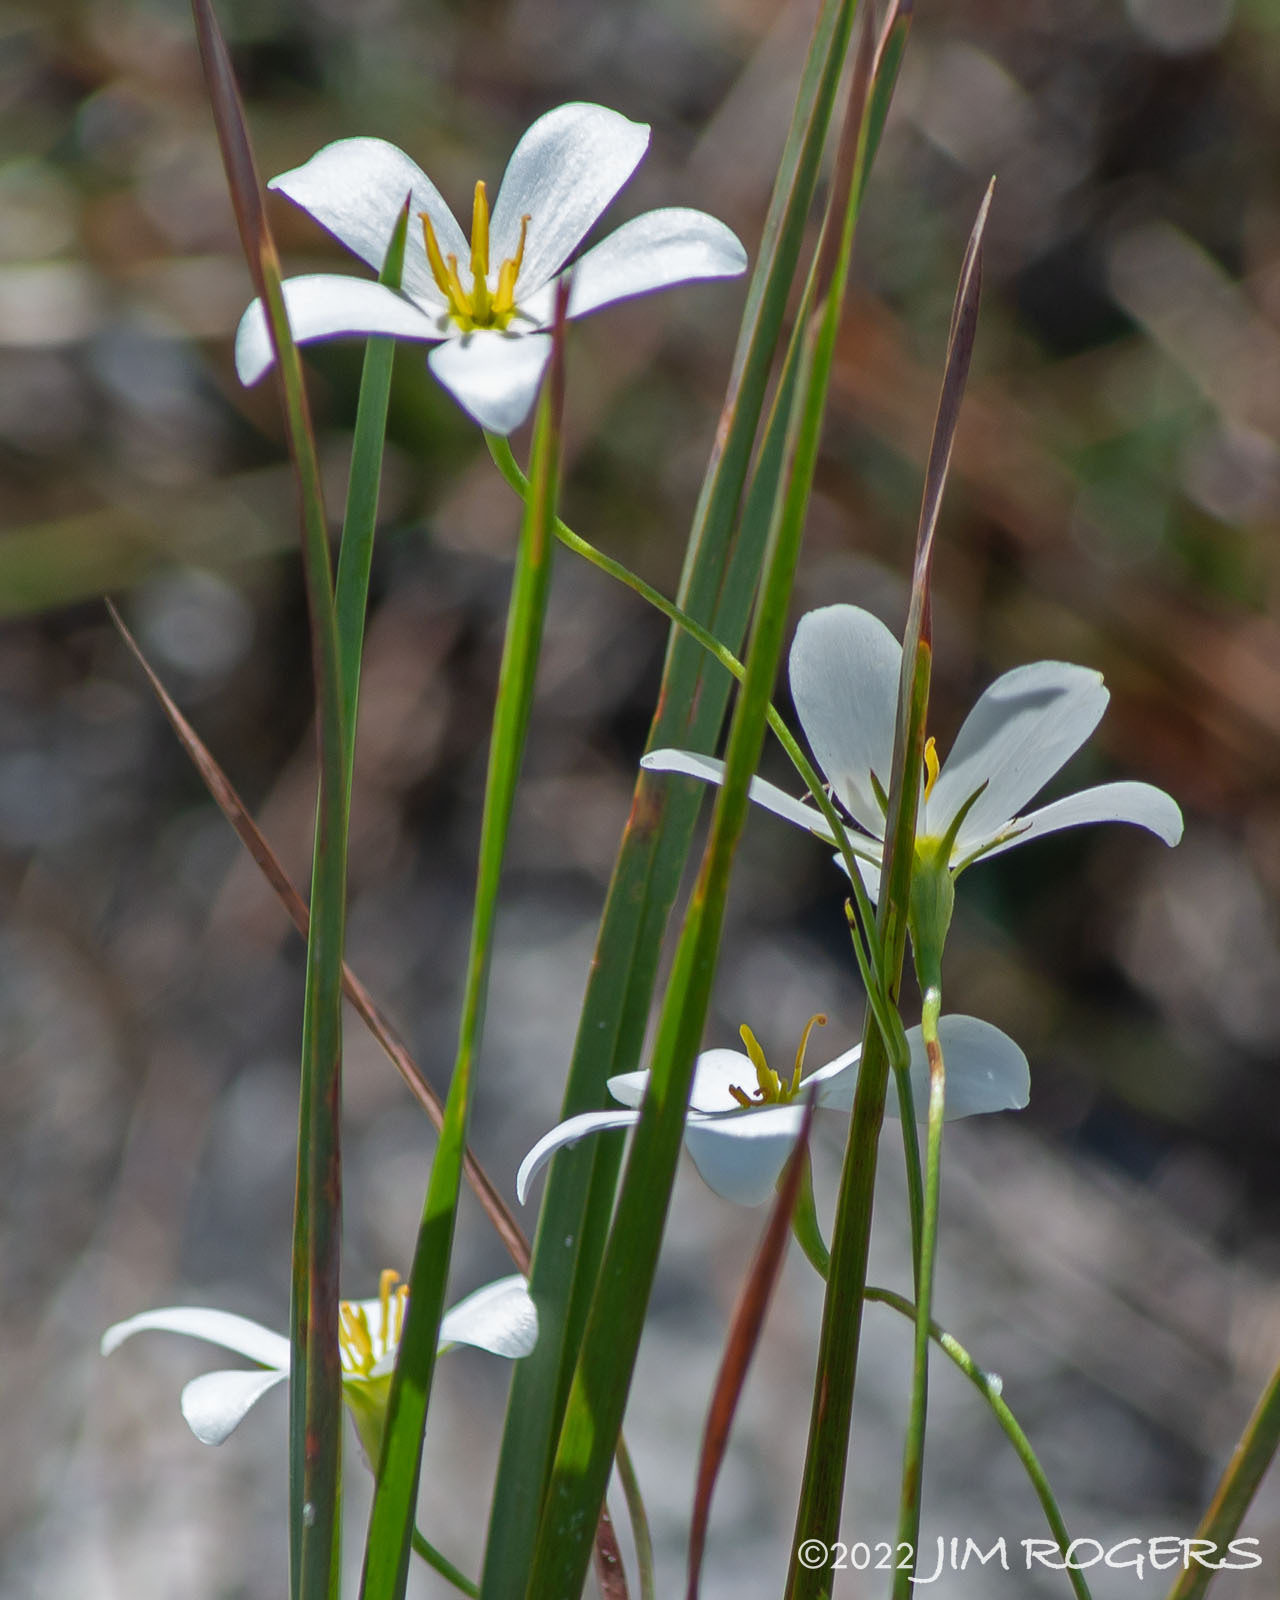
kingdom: Plantae
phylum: Tracheophyta
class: Magnoliopsida
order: Gentianales
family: Gentianaceae
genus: Sabatia
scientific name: Sabatia brevifolia
